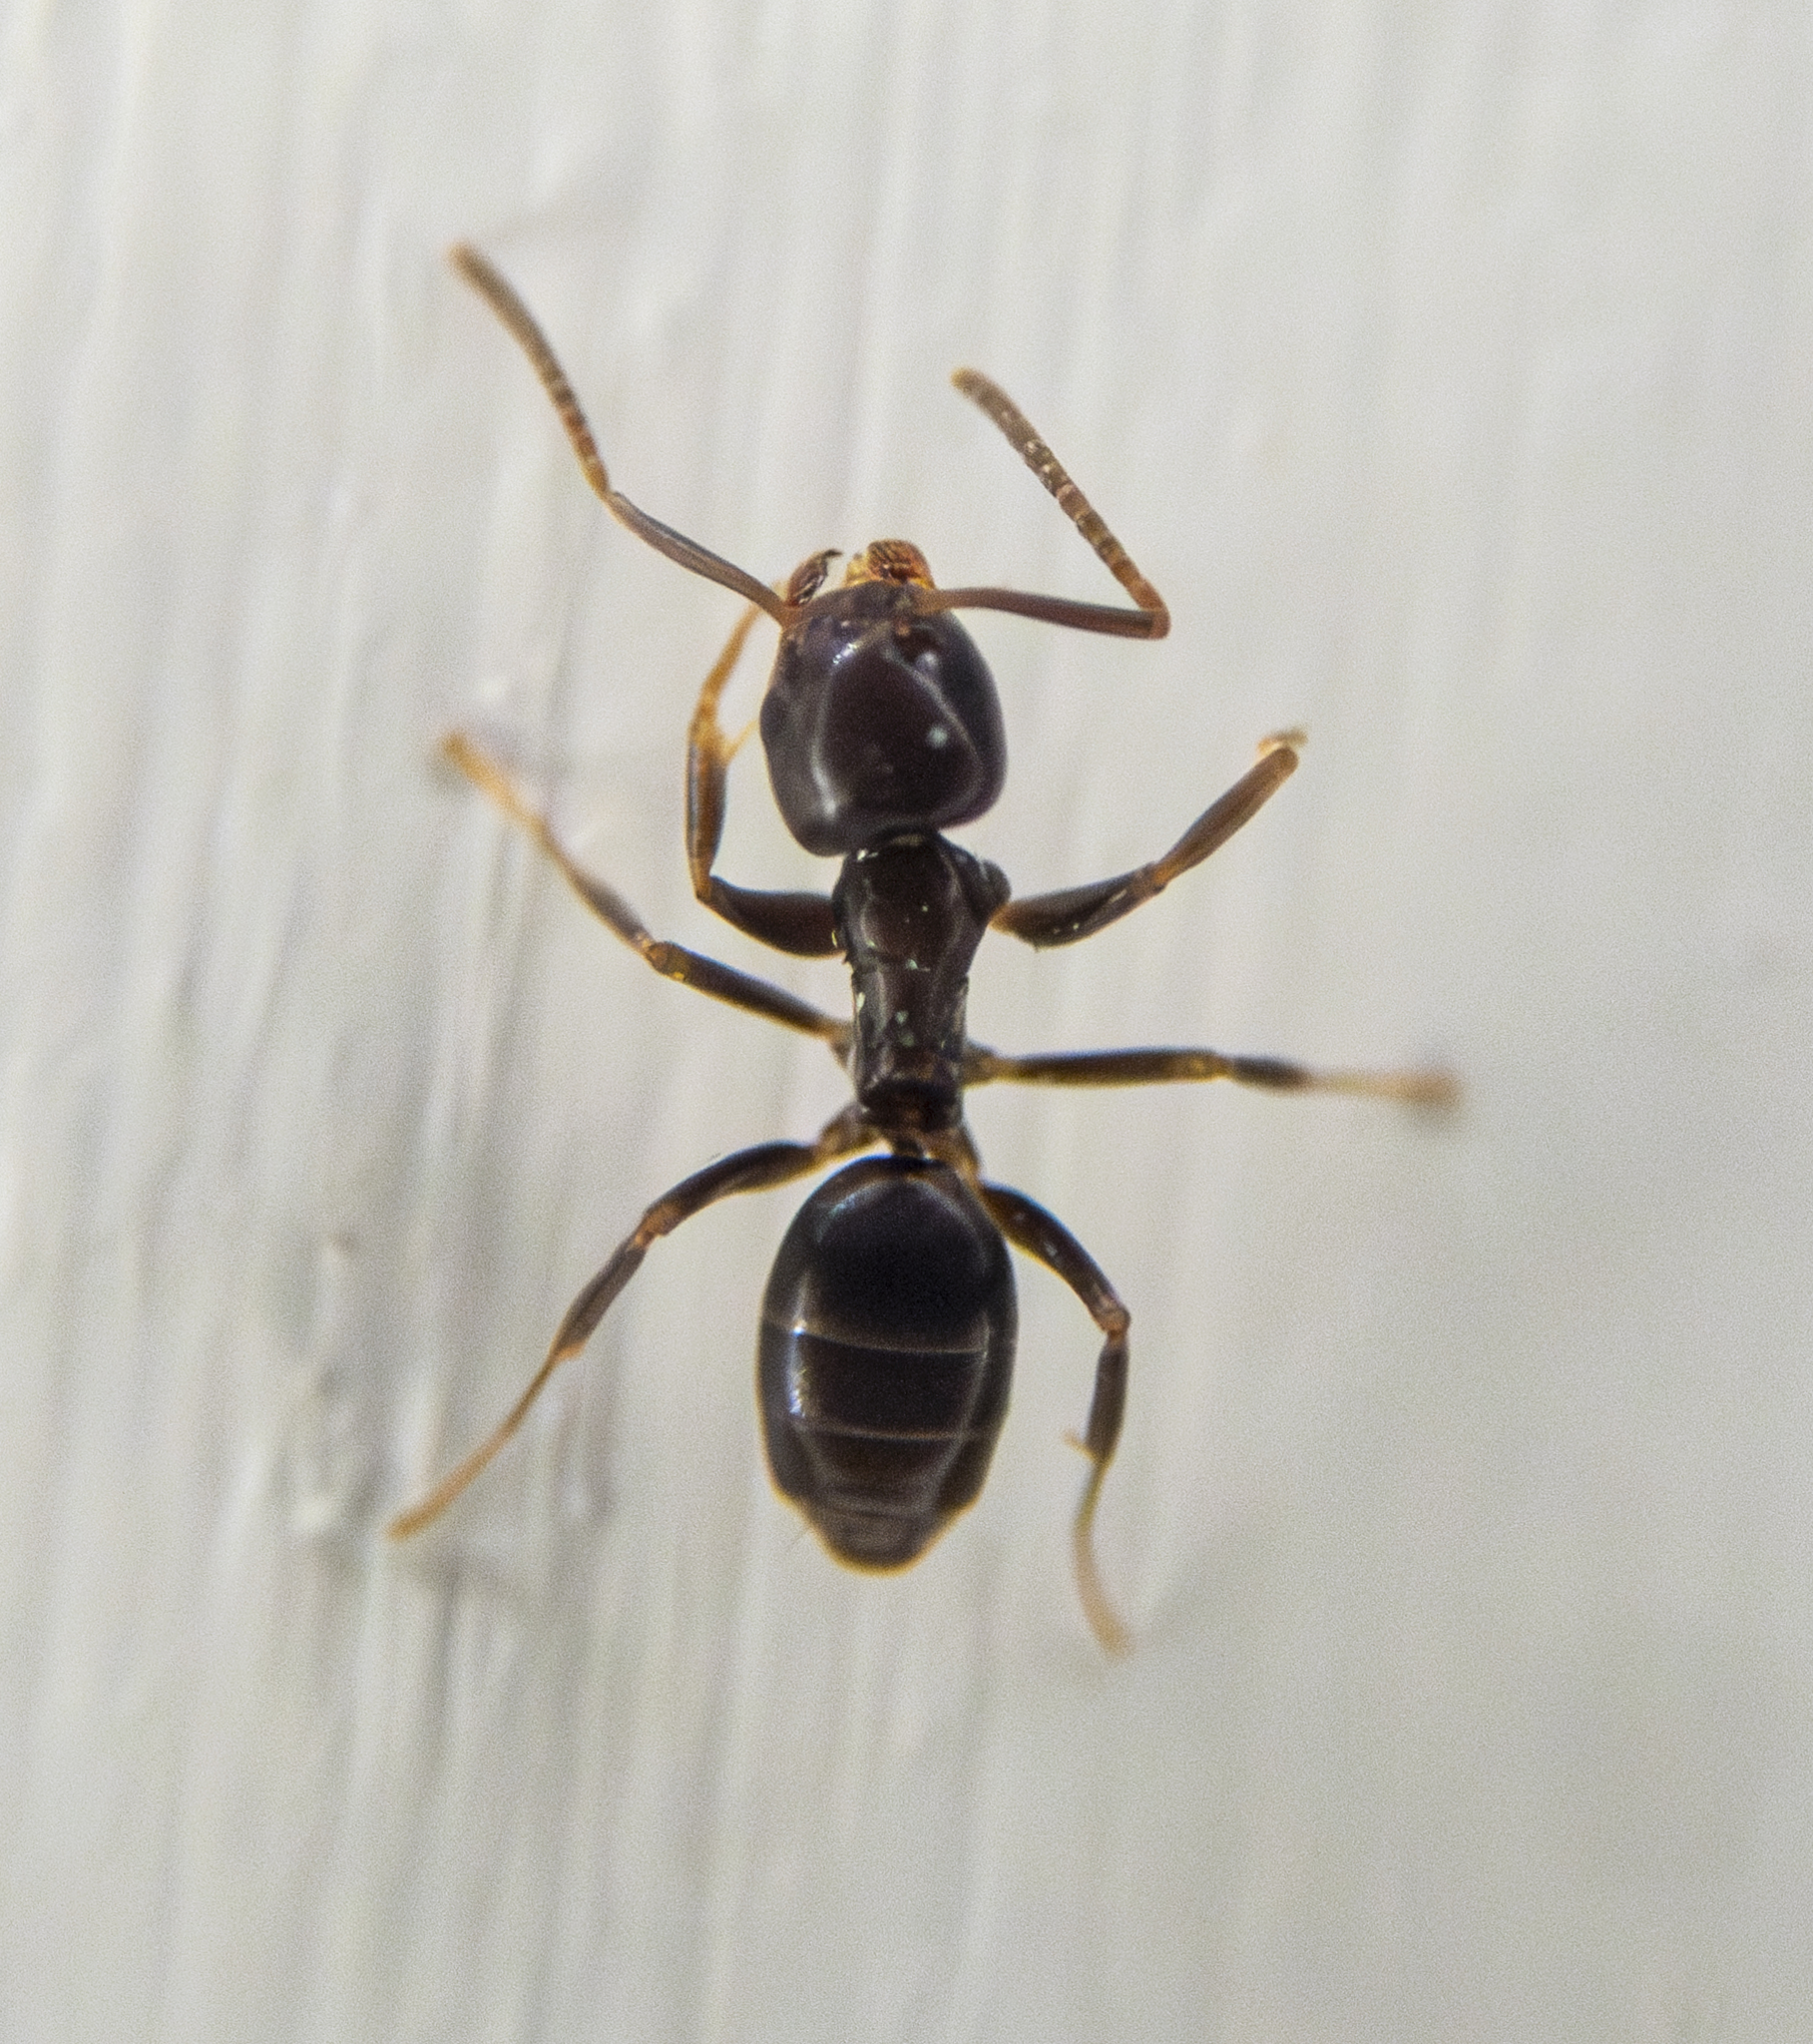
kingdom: Animalia
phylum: Arthropoda
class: Insecta
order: Hymenoptera
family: Formicidae
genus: Tapinoma
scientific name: Tapinoma sessile
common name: Odorous house ant
